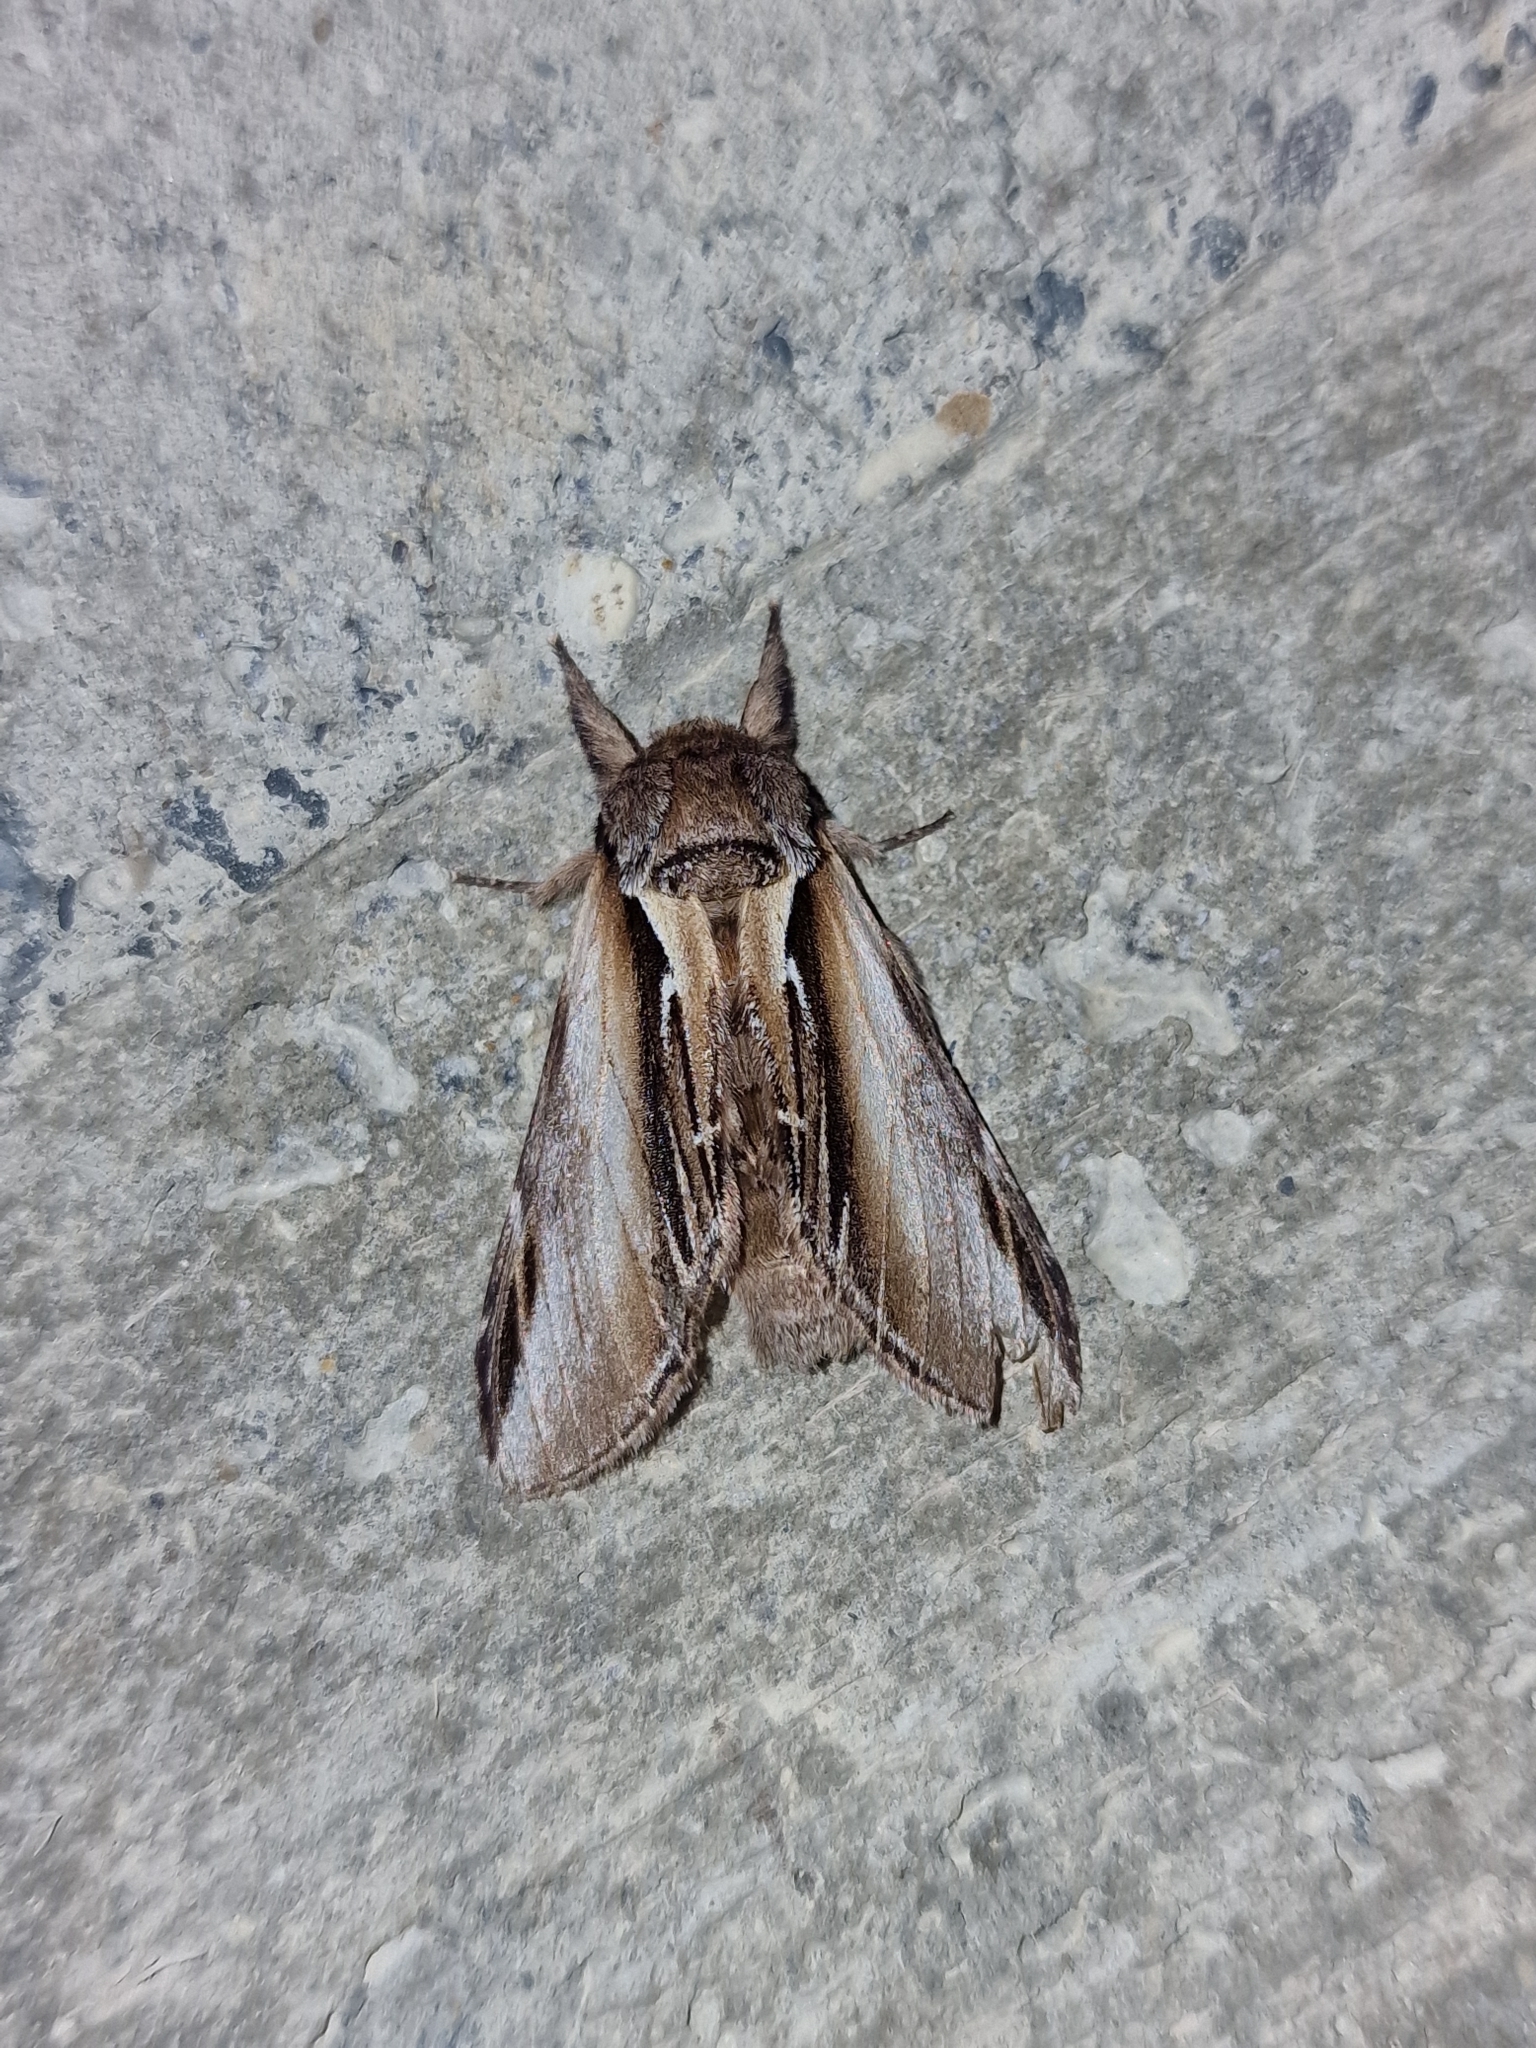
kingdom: Animalia
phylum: Arthropoda
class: Insecta
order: Lepidoptera
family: Notodontidae
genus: Pheosia
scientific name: Pheosia tremula
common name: Swallow prominent
